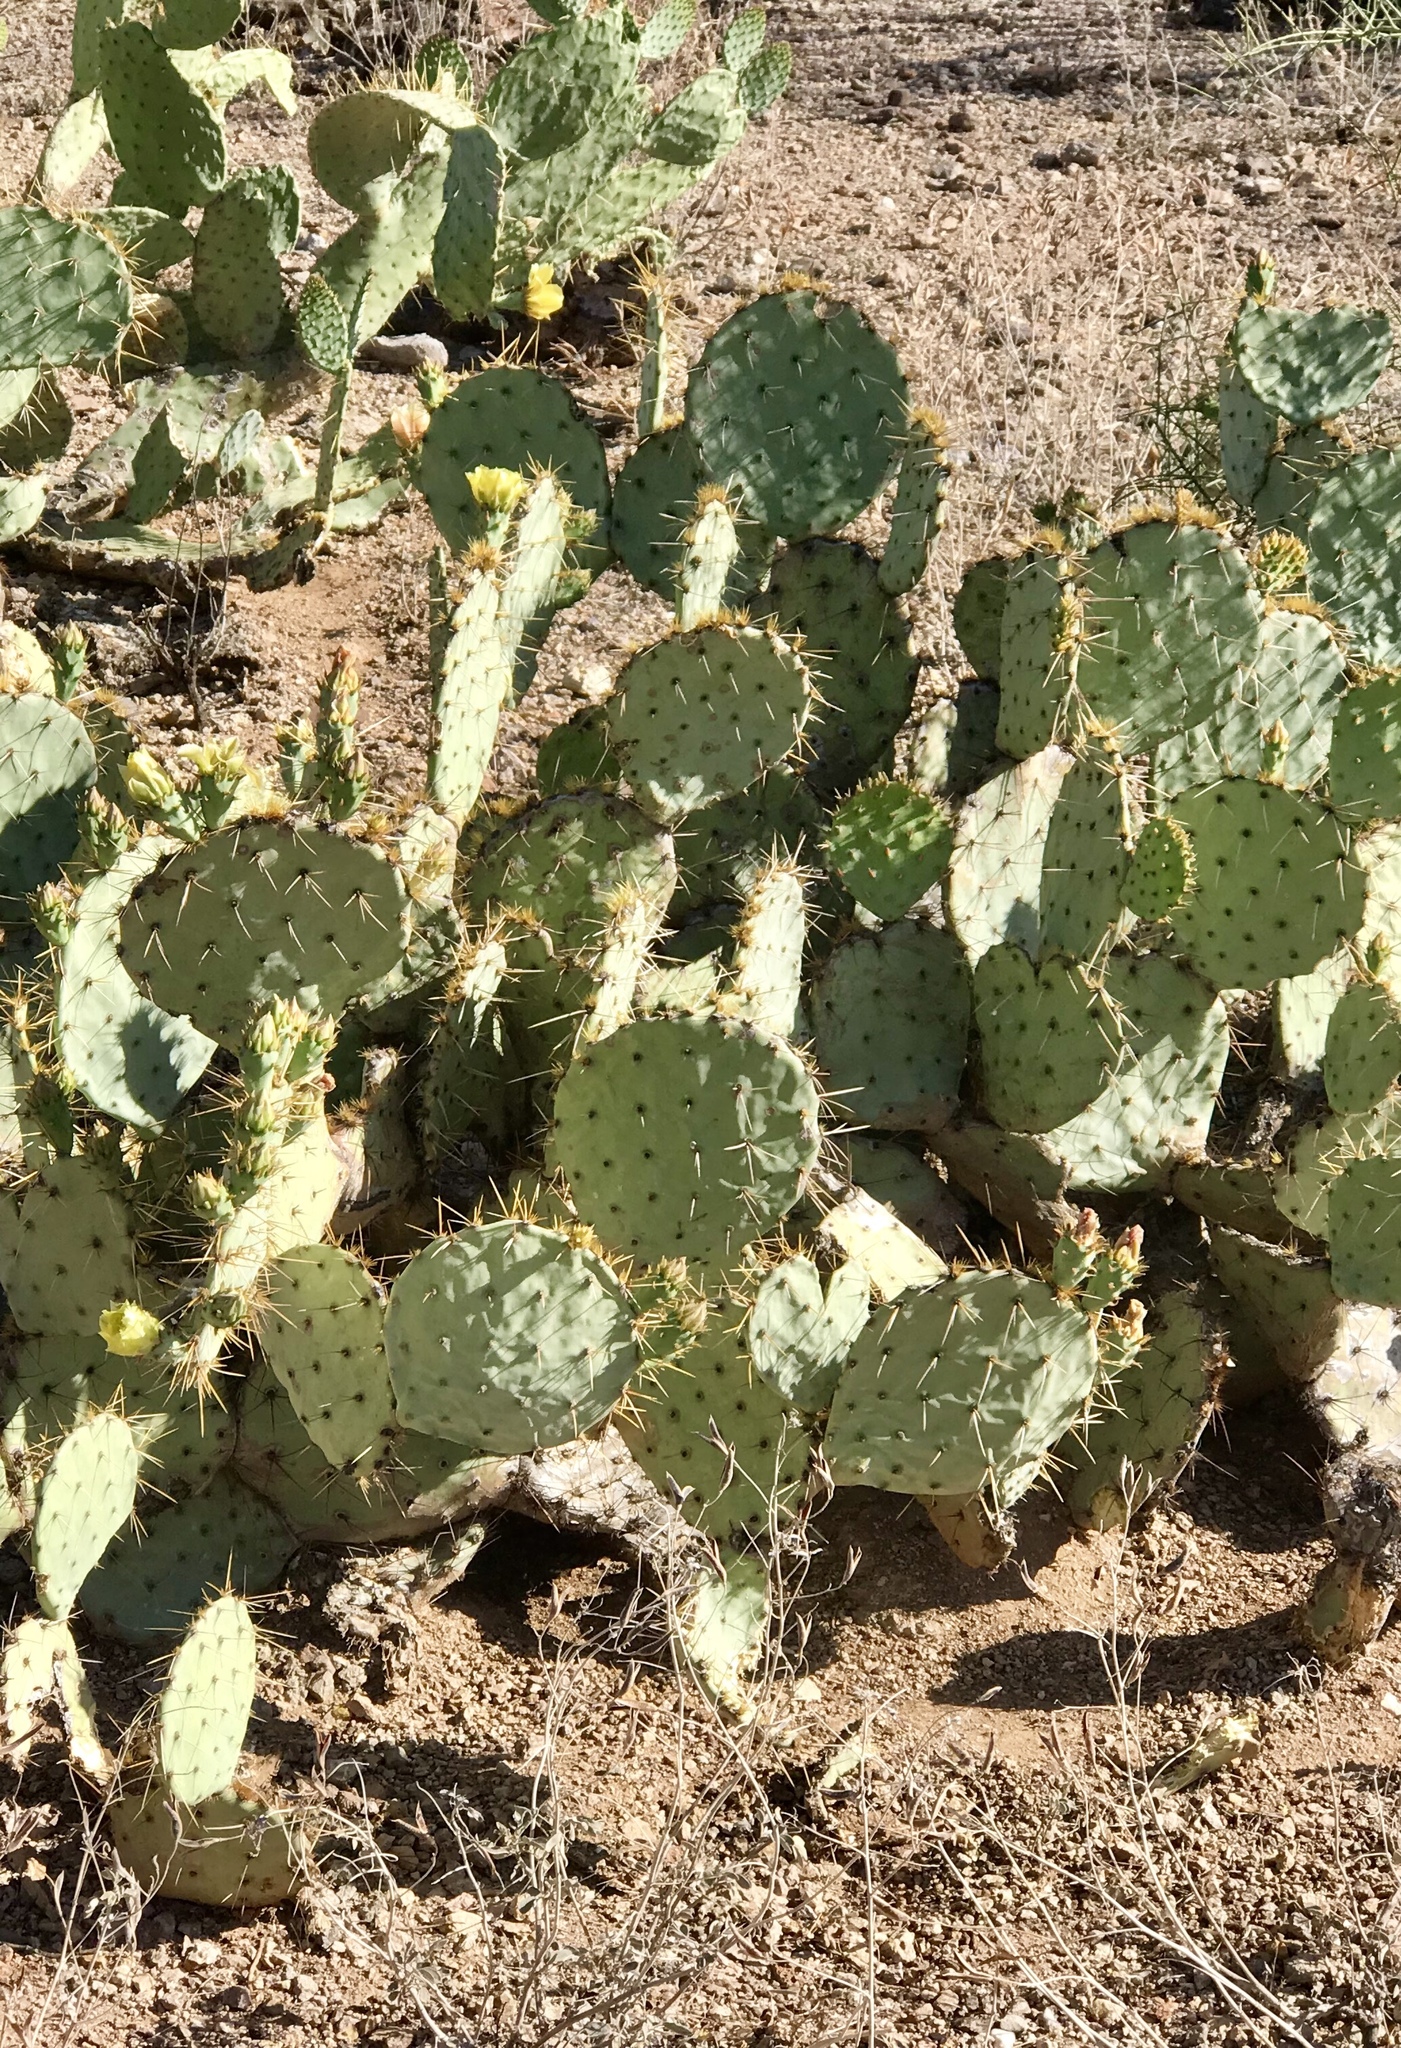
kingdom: Plantae
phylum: Tracheophyta
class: Magnoliopsida
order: Caryophyllales
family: Cactaceae
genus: Opuntia
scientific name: Opuntia engelmannii
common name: Cactus-apple
